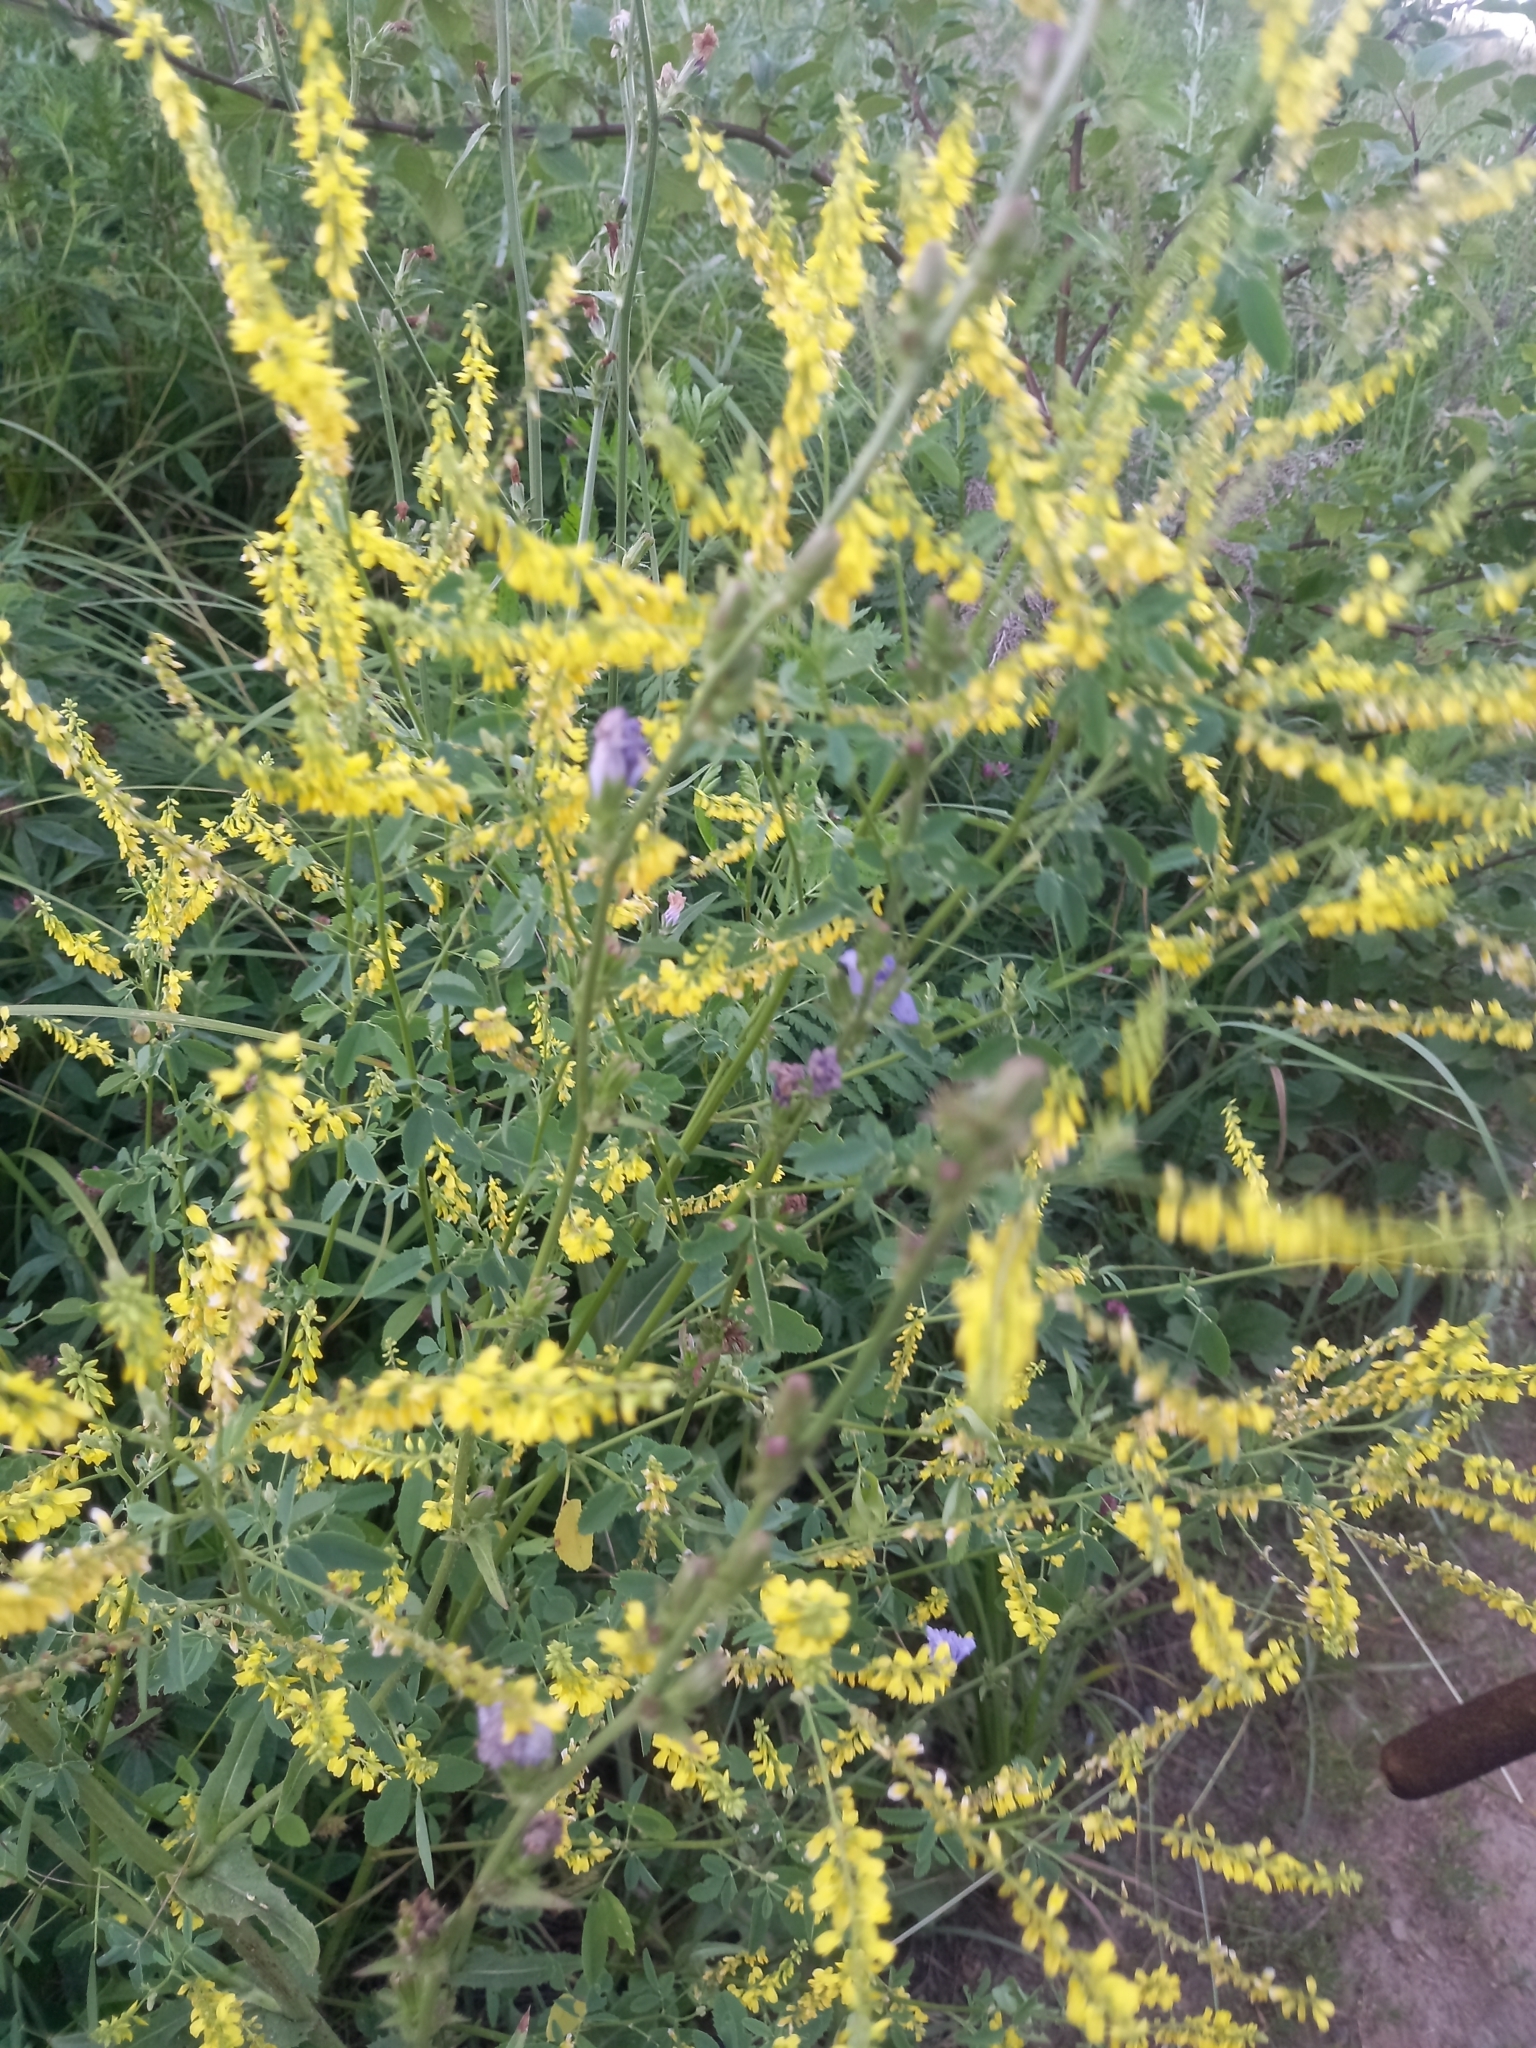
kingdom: Plantae
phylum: Tracheophyta
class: Magnoliopsida
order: Fabales
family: Fabaceae
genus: Melilotus
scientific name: Melilotus officinalis
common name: Sweetclover
